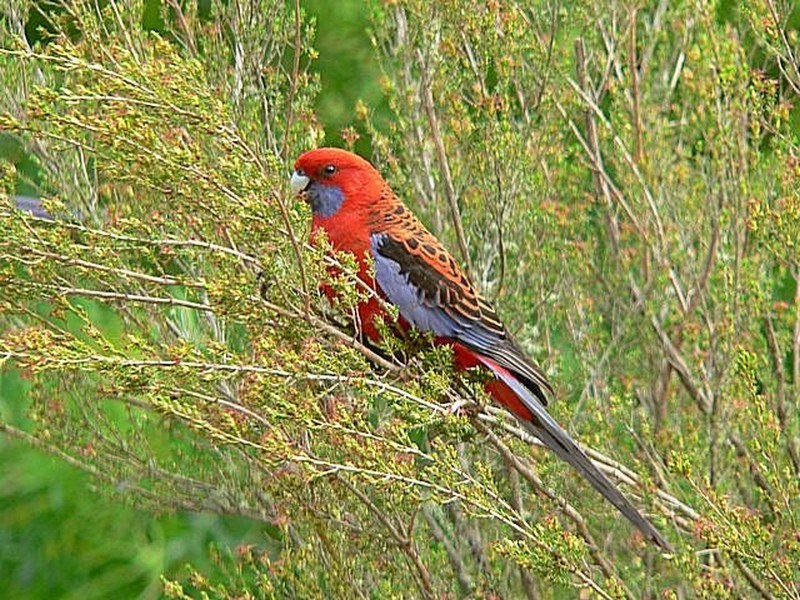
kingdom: Animalia
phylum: Chordata
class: Aves
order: Psittaciformes
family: Psittacidae
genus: Platycercus
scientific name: Platycercus elegans
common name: Crimson rosella
